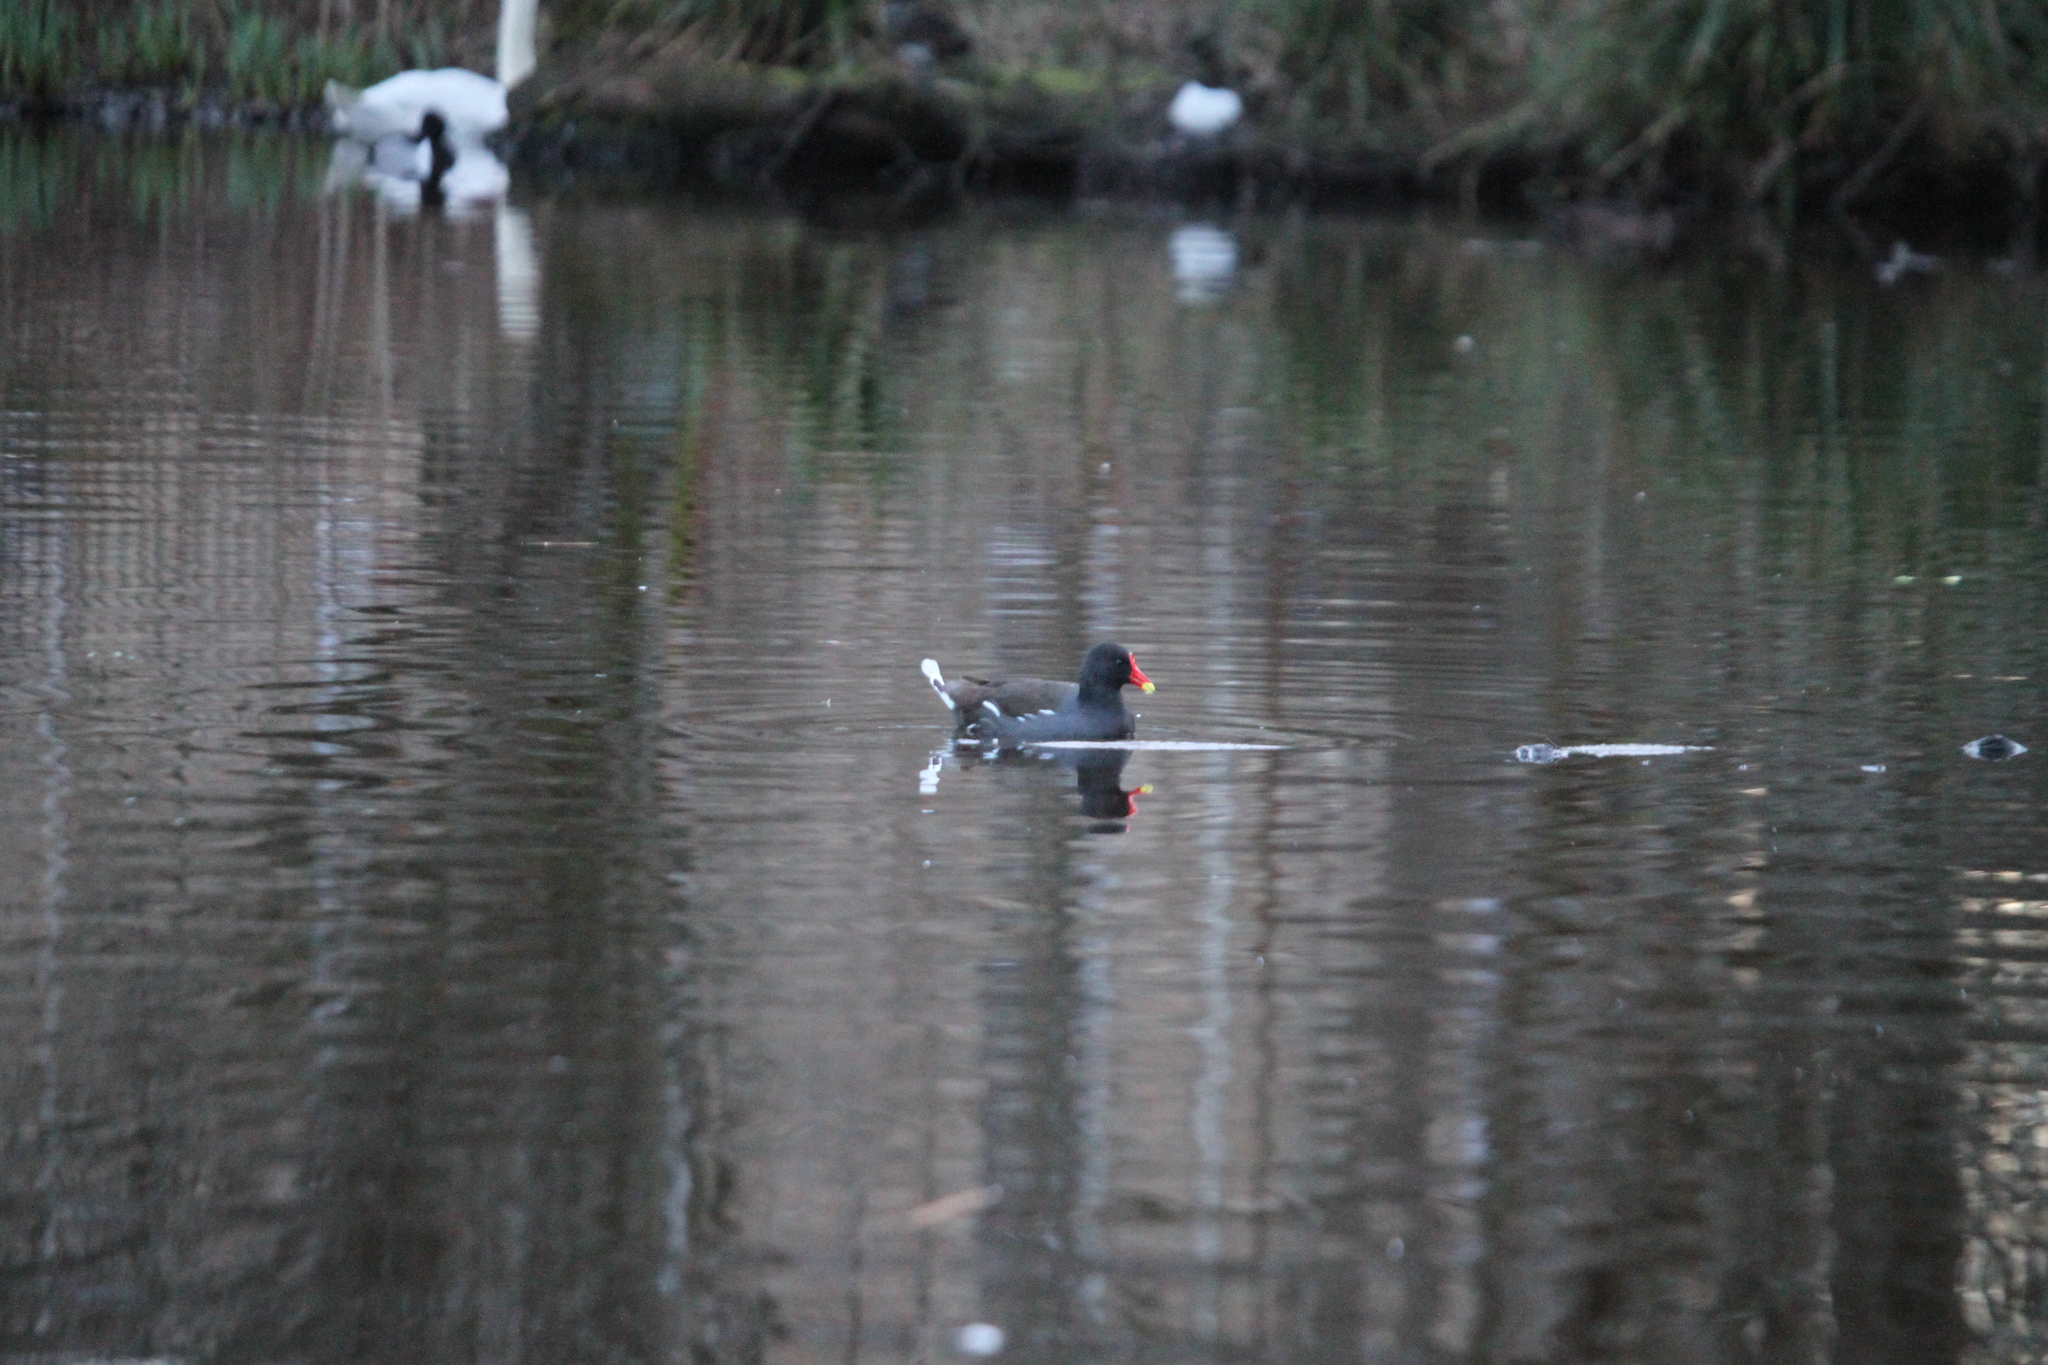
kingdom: Animalia
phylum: Chordata
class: Aves
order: Gruiformes
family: Rallidae
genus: Gallinula
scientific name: Gallinula chloropus
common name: Common moorhen
